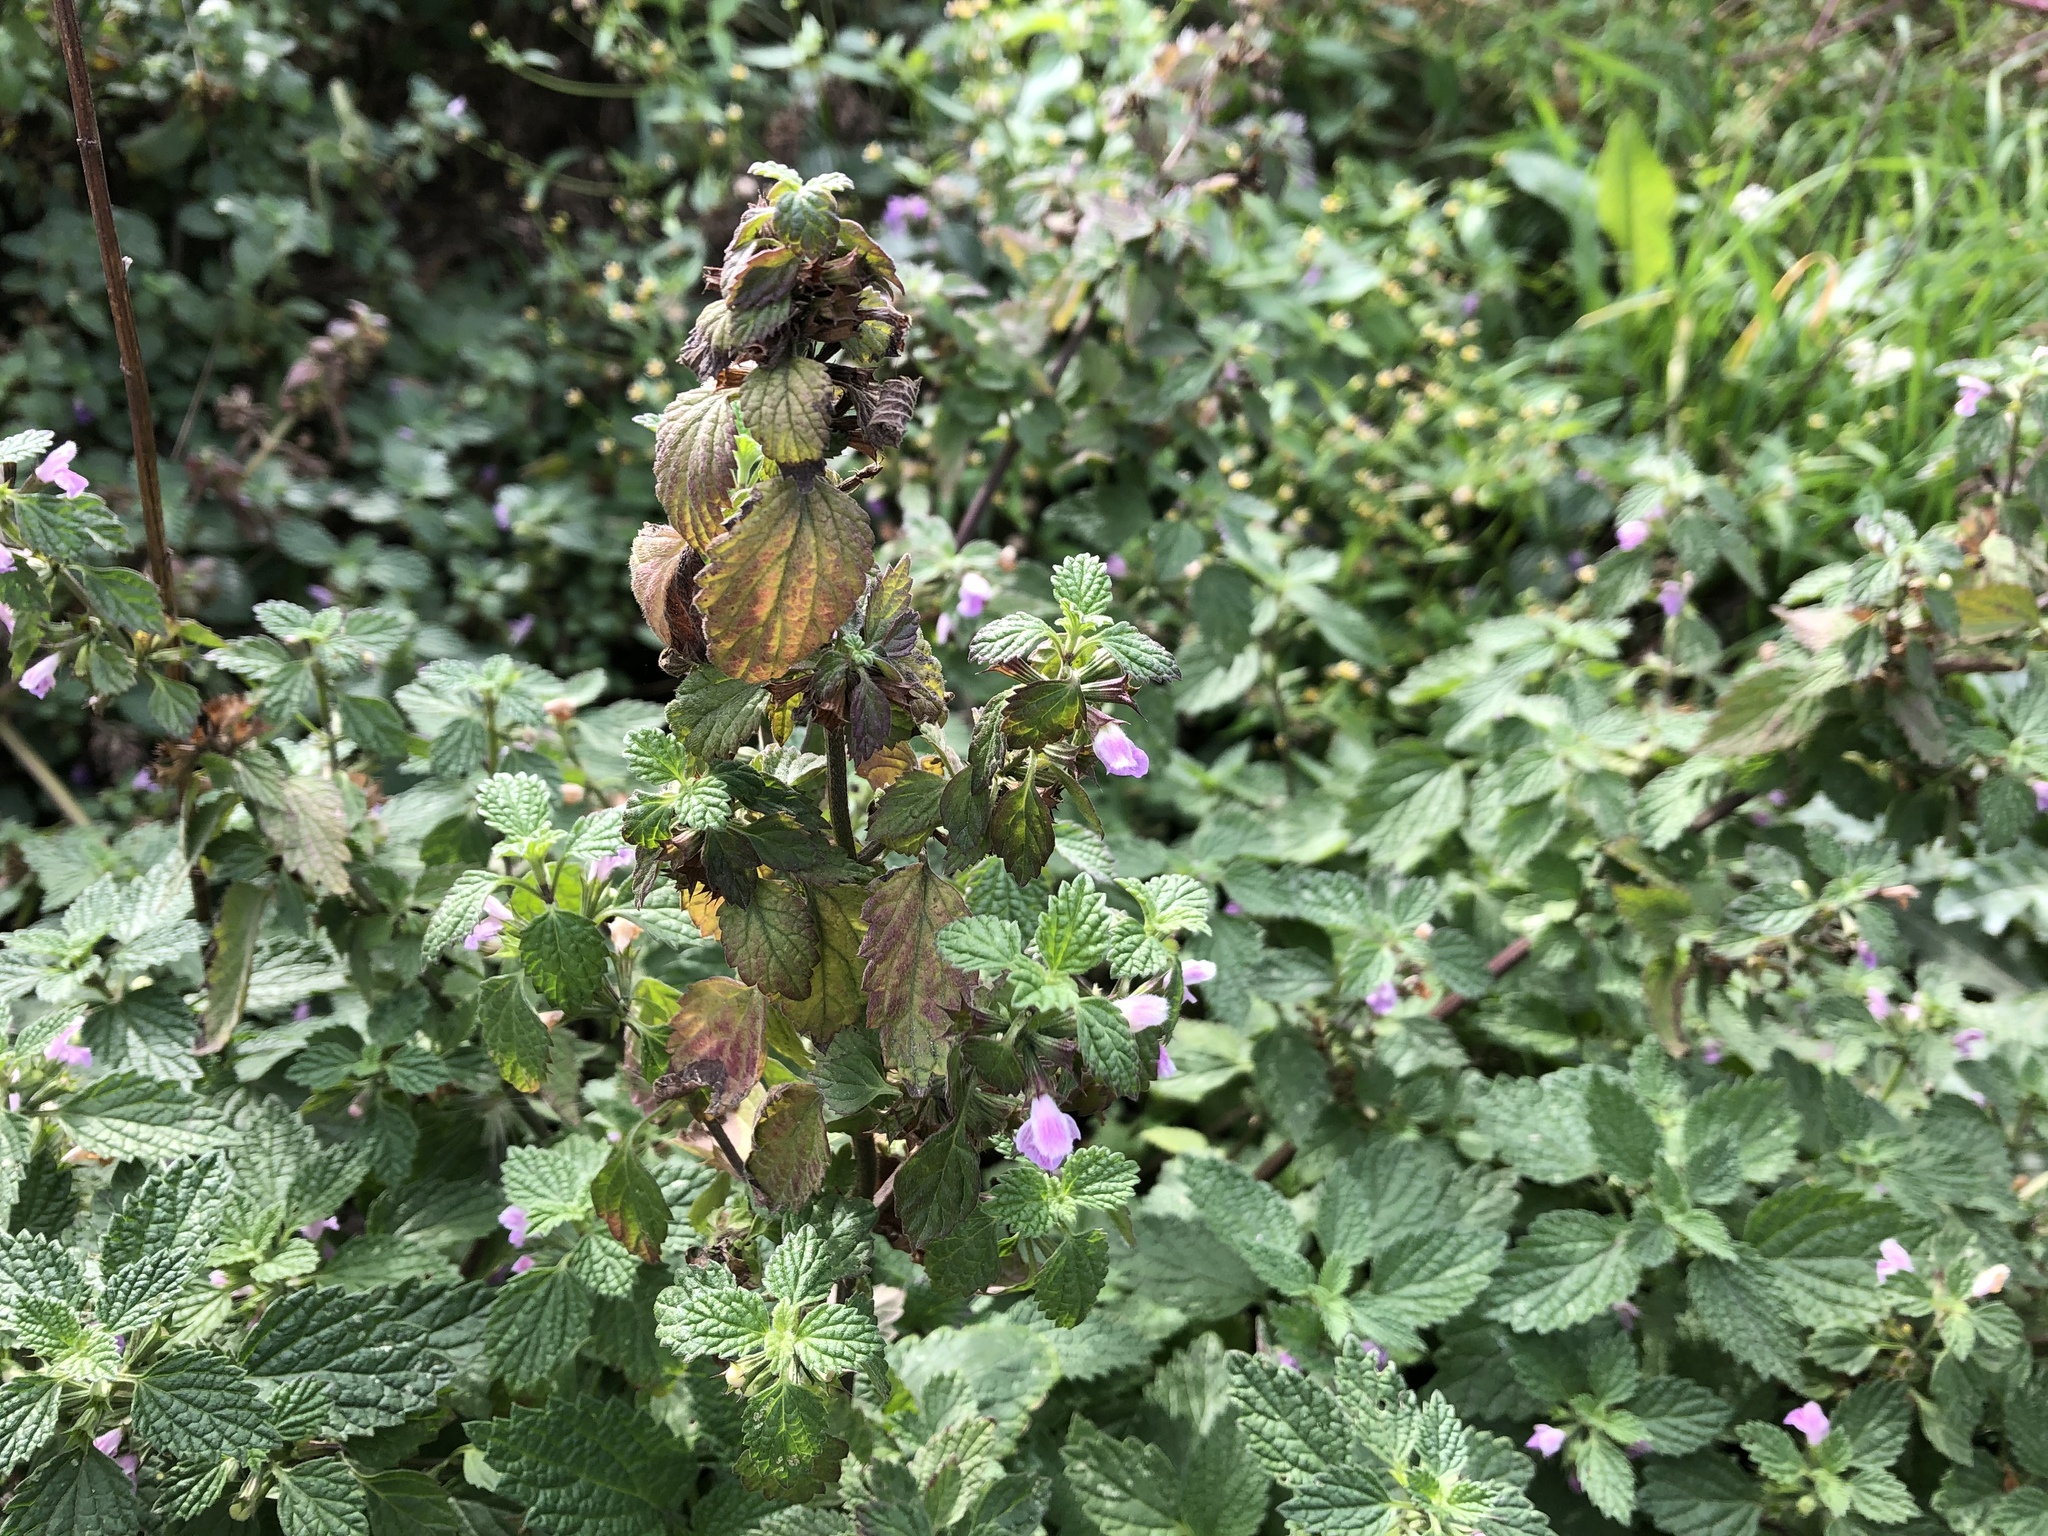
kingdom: Plantae
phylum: Tracheophyta
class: Magnoliopsida
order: Lamiales
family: Lamiaceae
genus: Ballota
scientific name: Ballota nigra
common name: Black horehound
